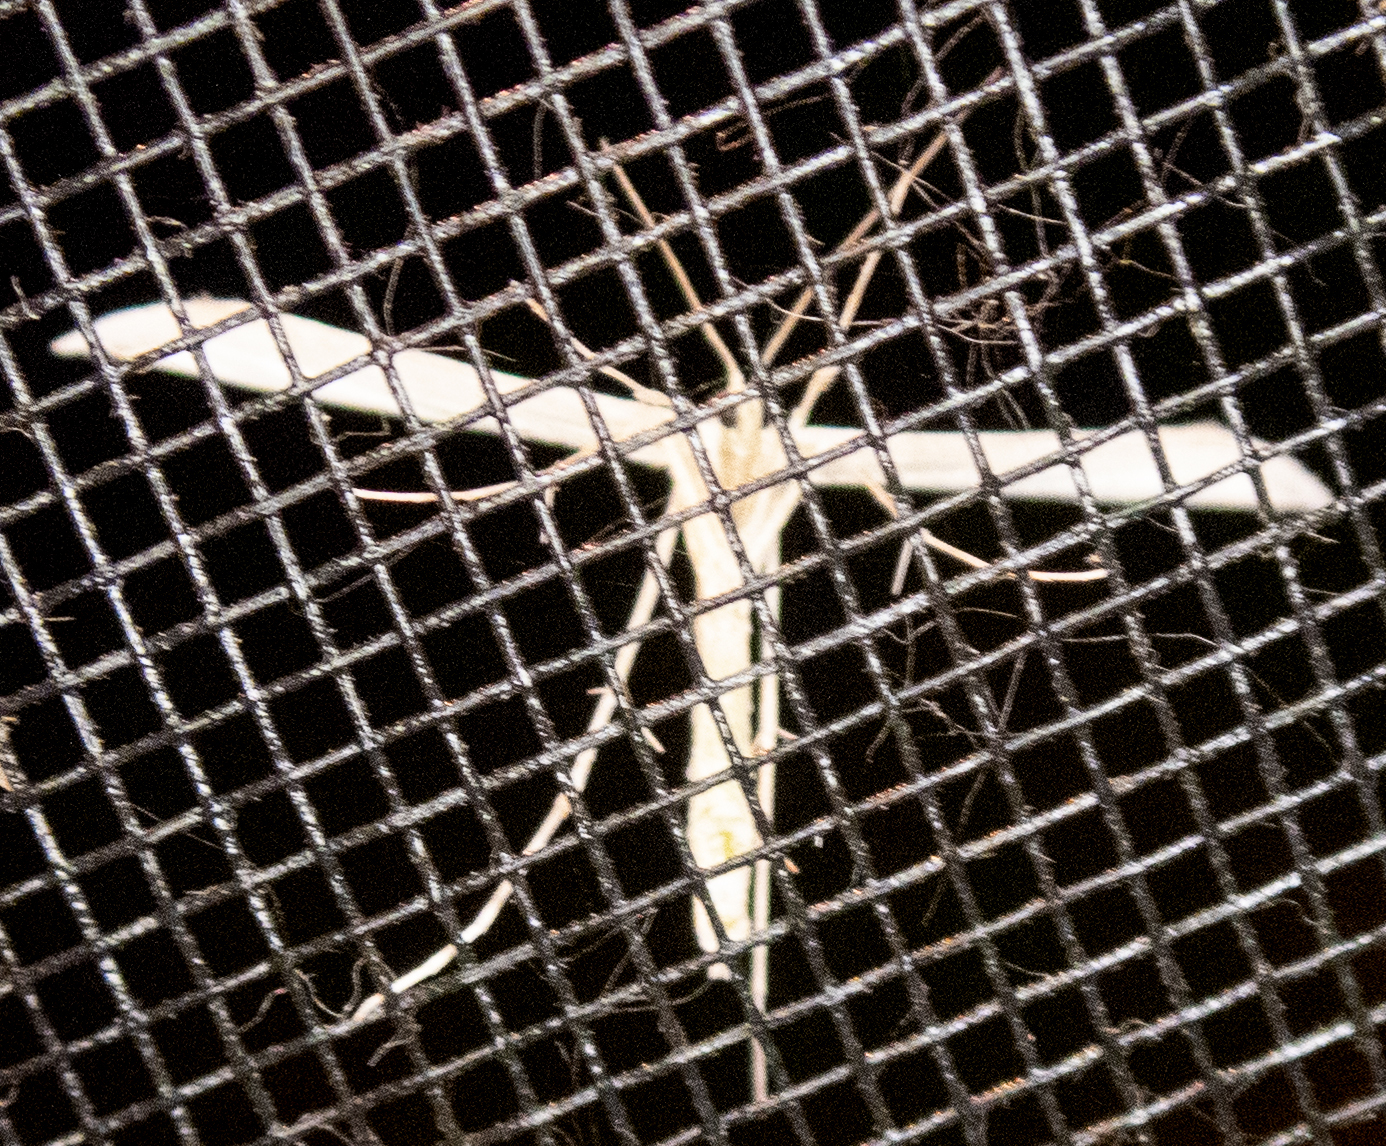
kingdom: Animalia
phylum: Arthropoda
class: Insecta
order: Lepidoptera
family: Pterophoridae
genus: Hellinsia
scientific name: Hellinsia homodactylus
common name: Plain plume moth
